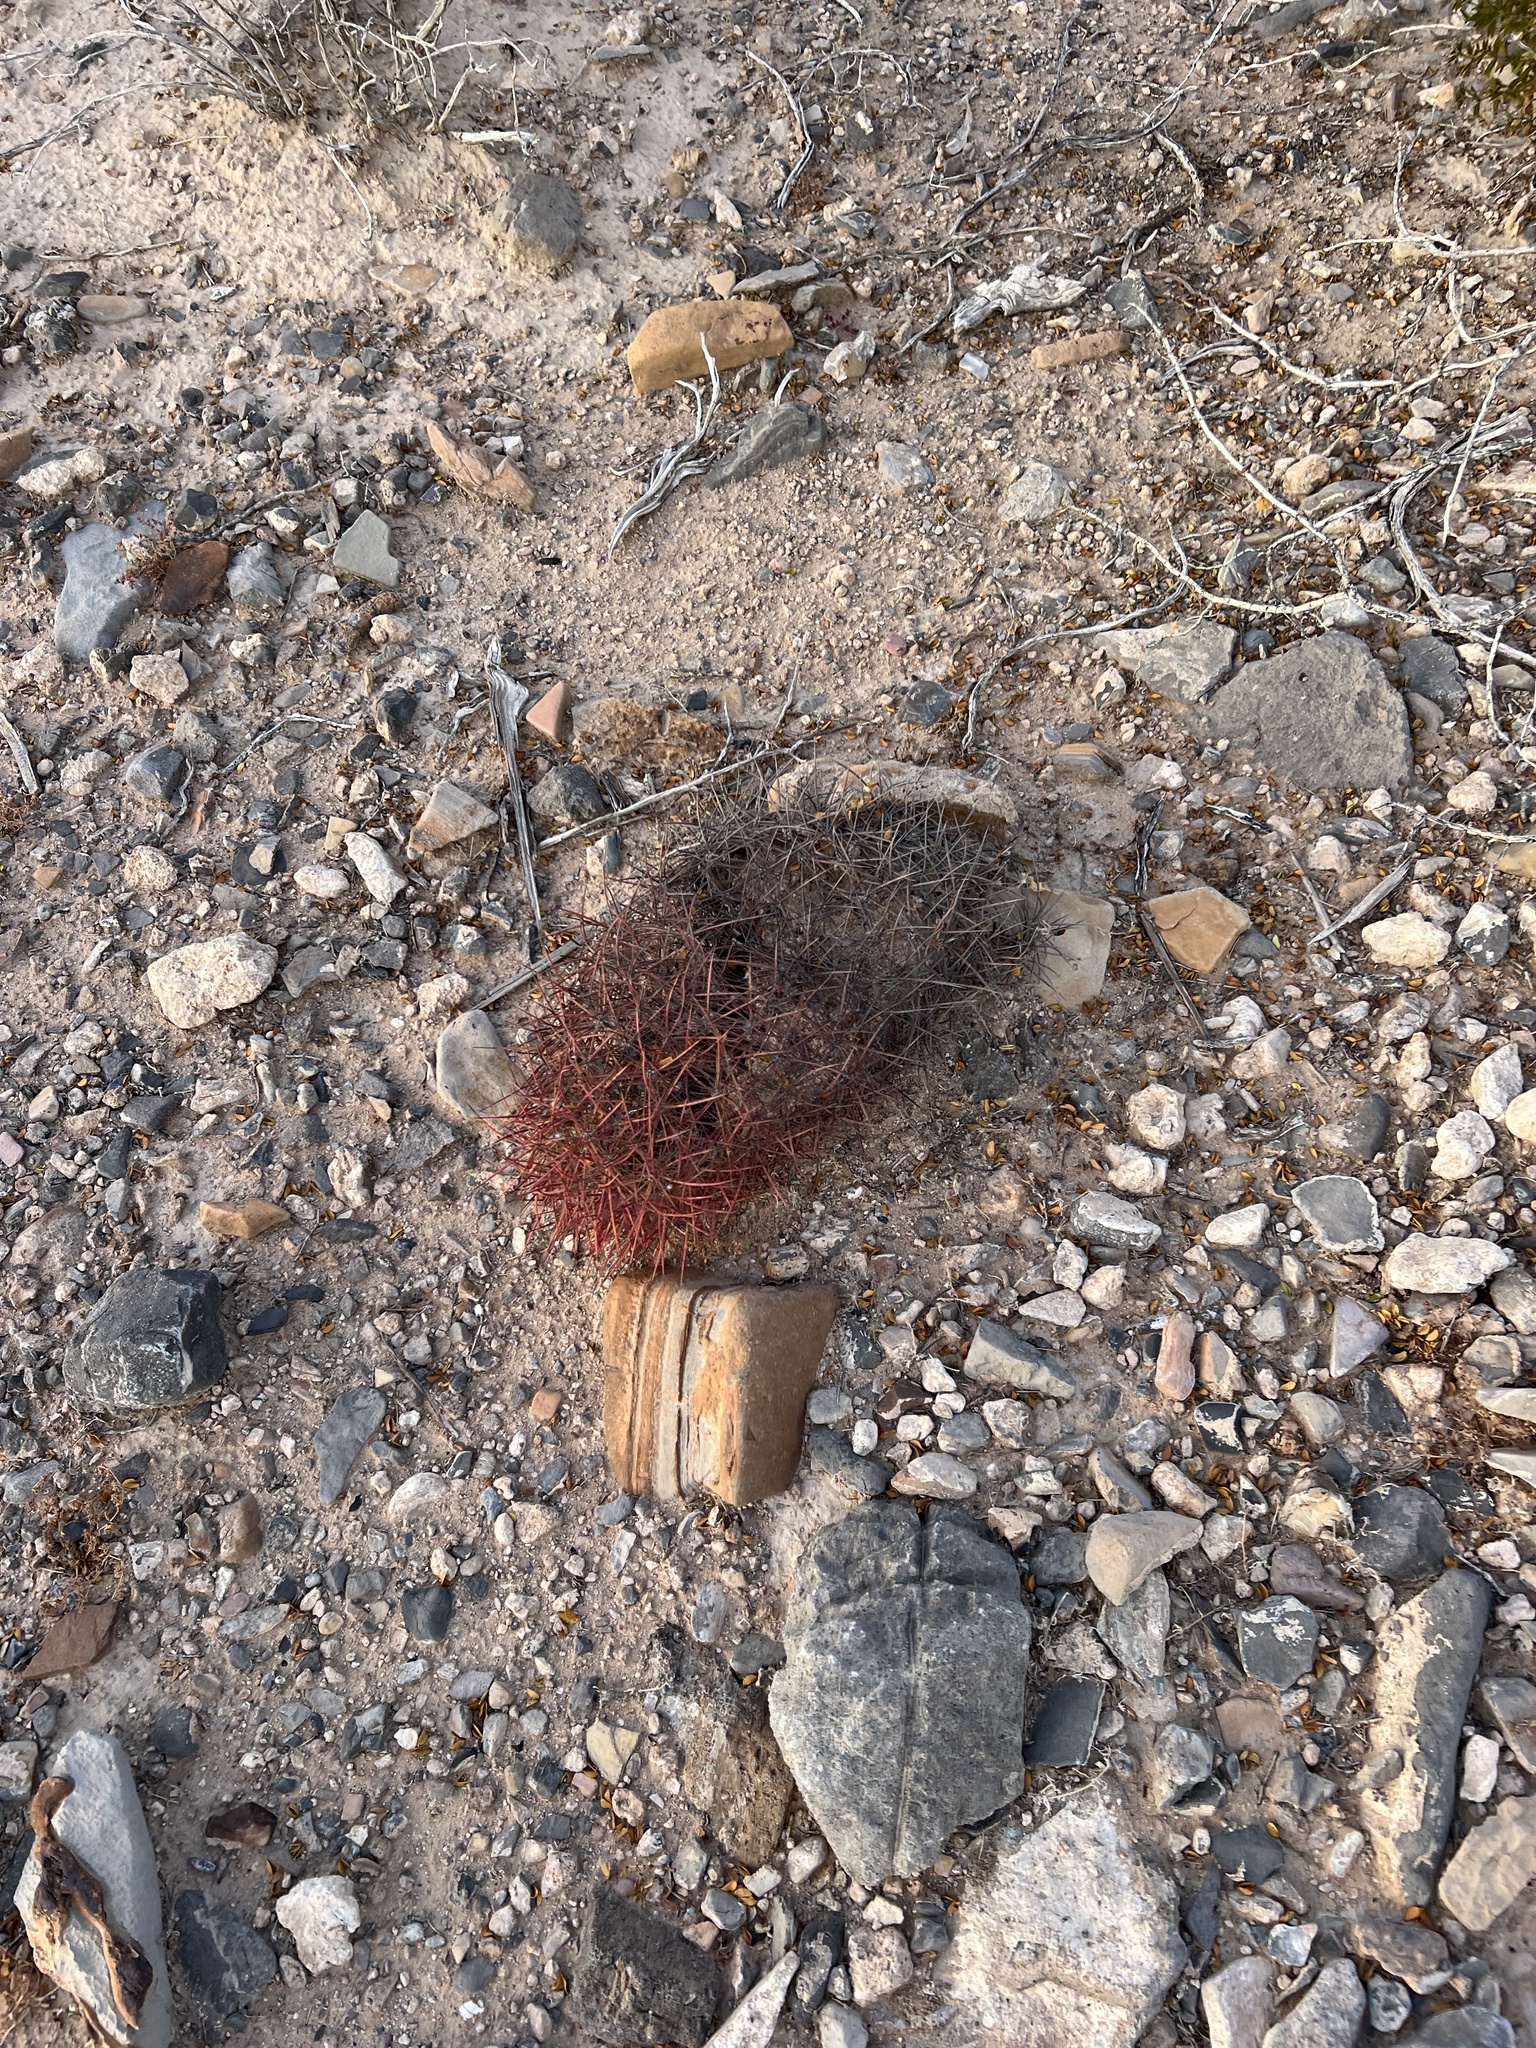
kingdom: Plantae
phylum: Tracheophyta
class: Magnoliopsida
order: Caryophyllales
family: Cactaceae
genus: Sclerocactus
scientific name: Sclerocactus johnsonii
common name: Eight-spine fishhook cactus
